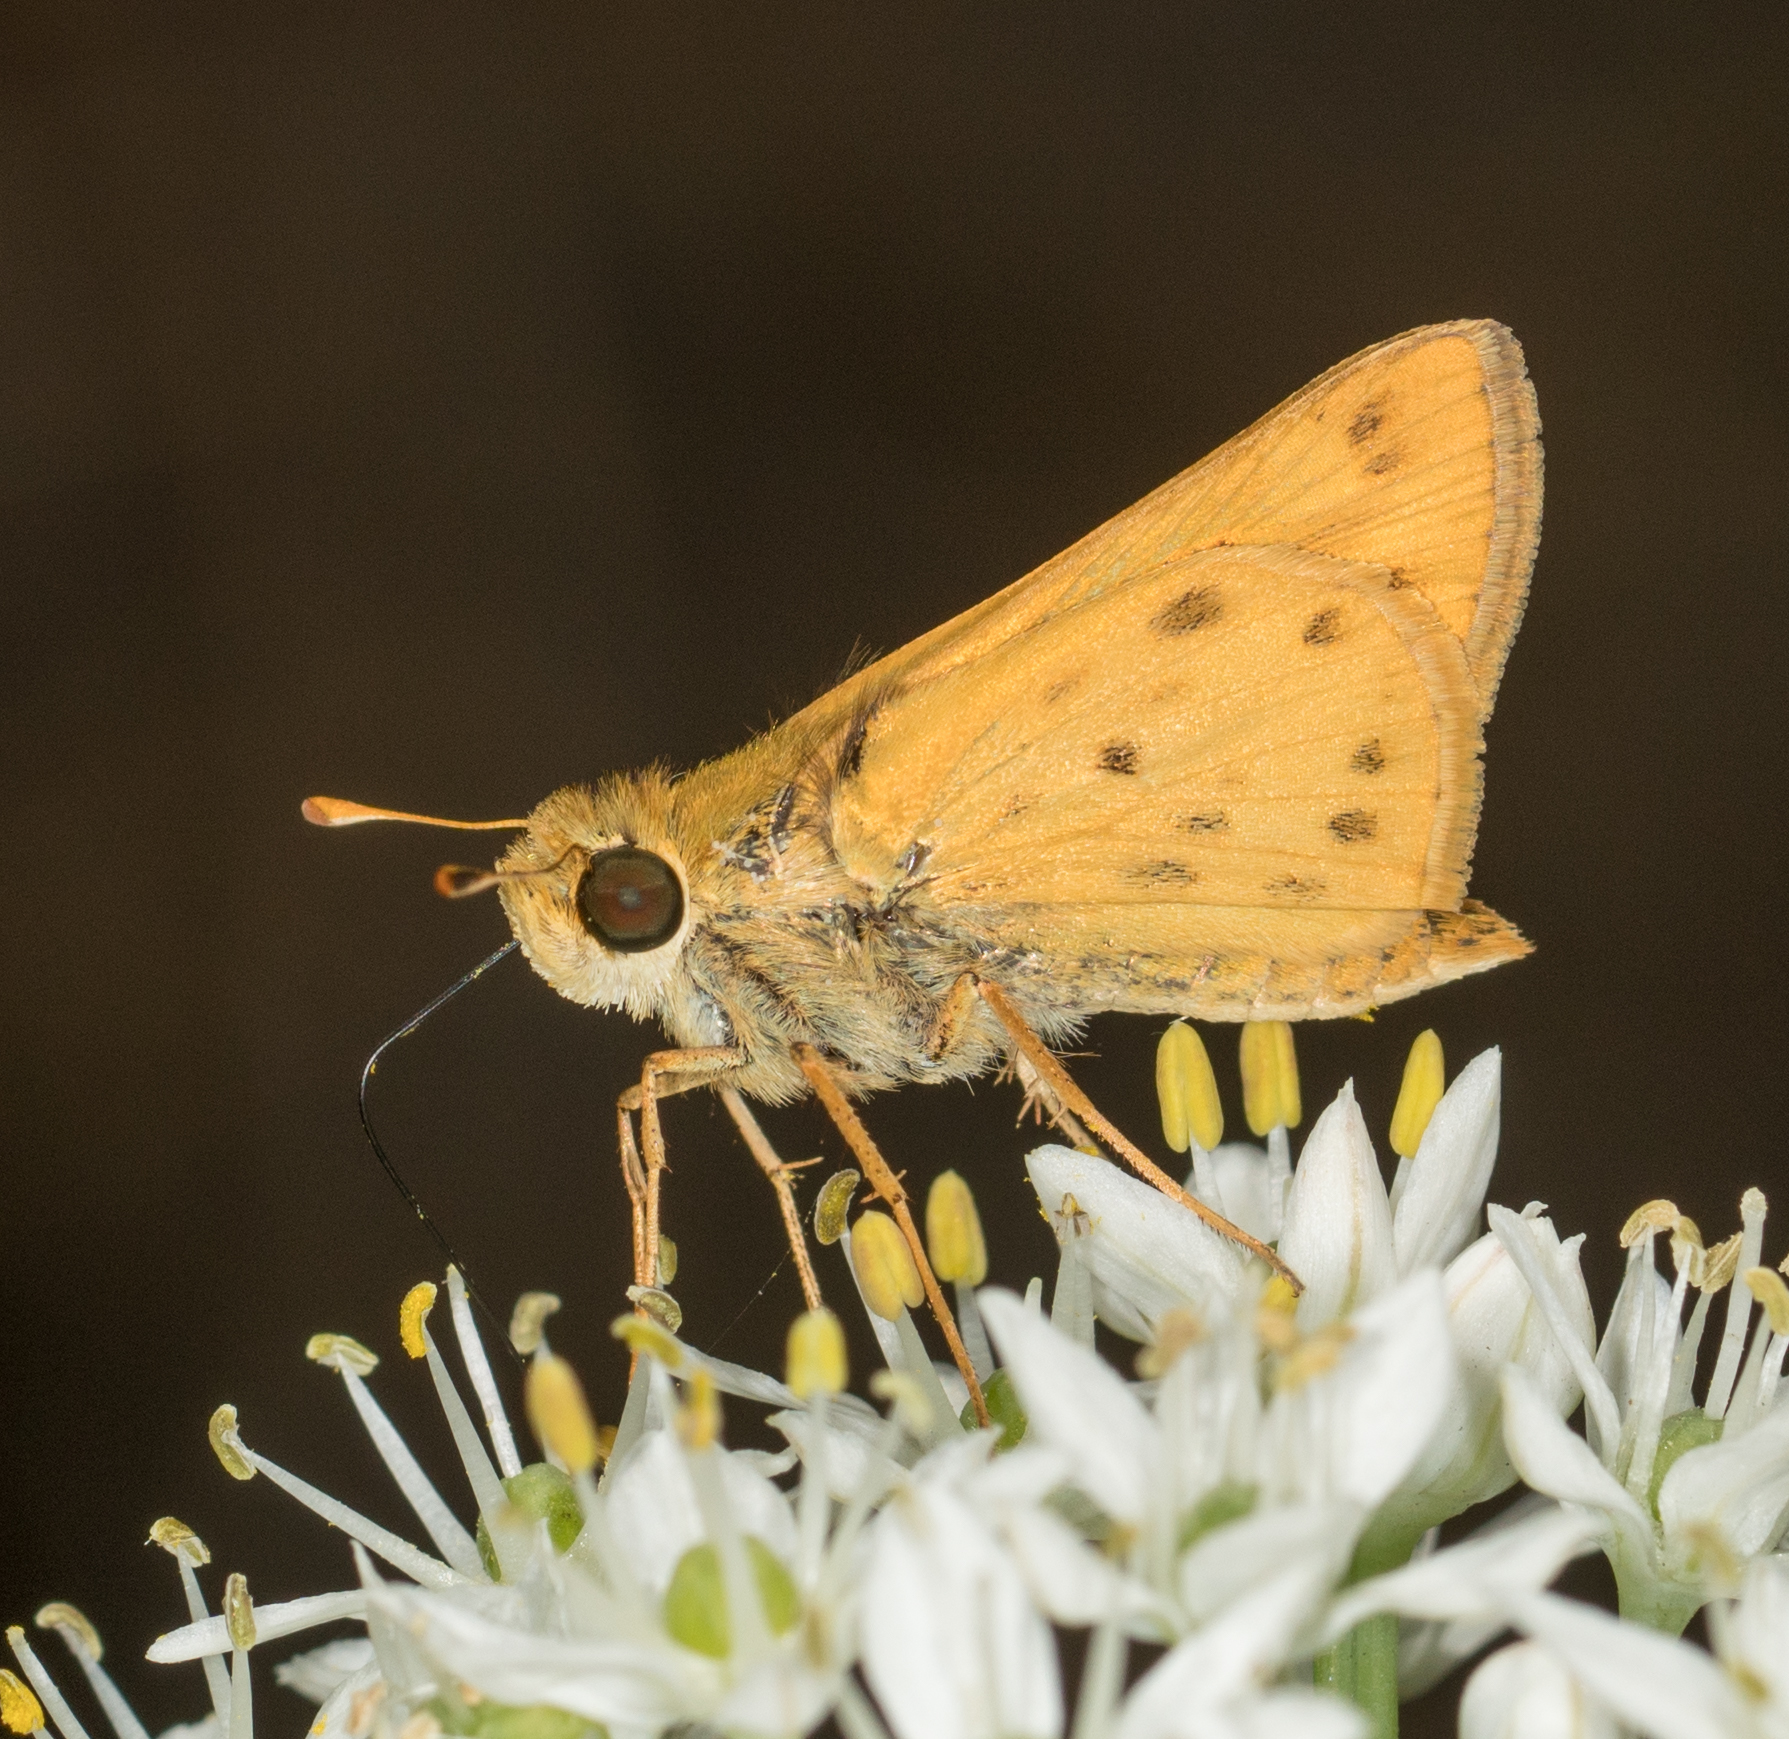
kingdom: Animalia
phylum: Arthropoda
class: Insecta
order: Lepidoptera
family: Hesperiidae
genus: Hylephila
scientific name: Hylephila phyleus
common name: Fiery skipper
